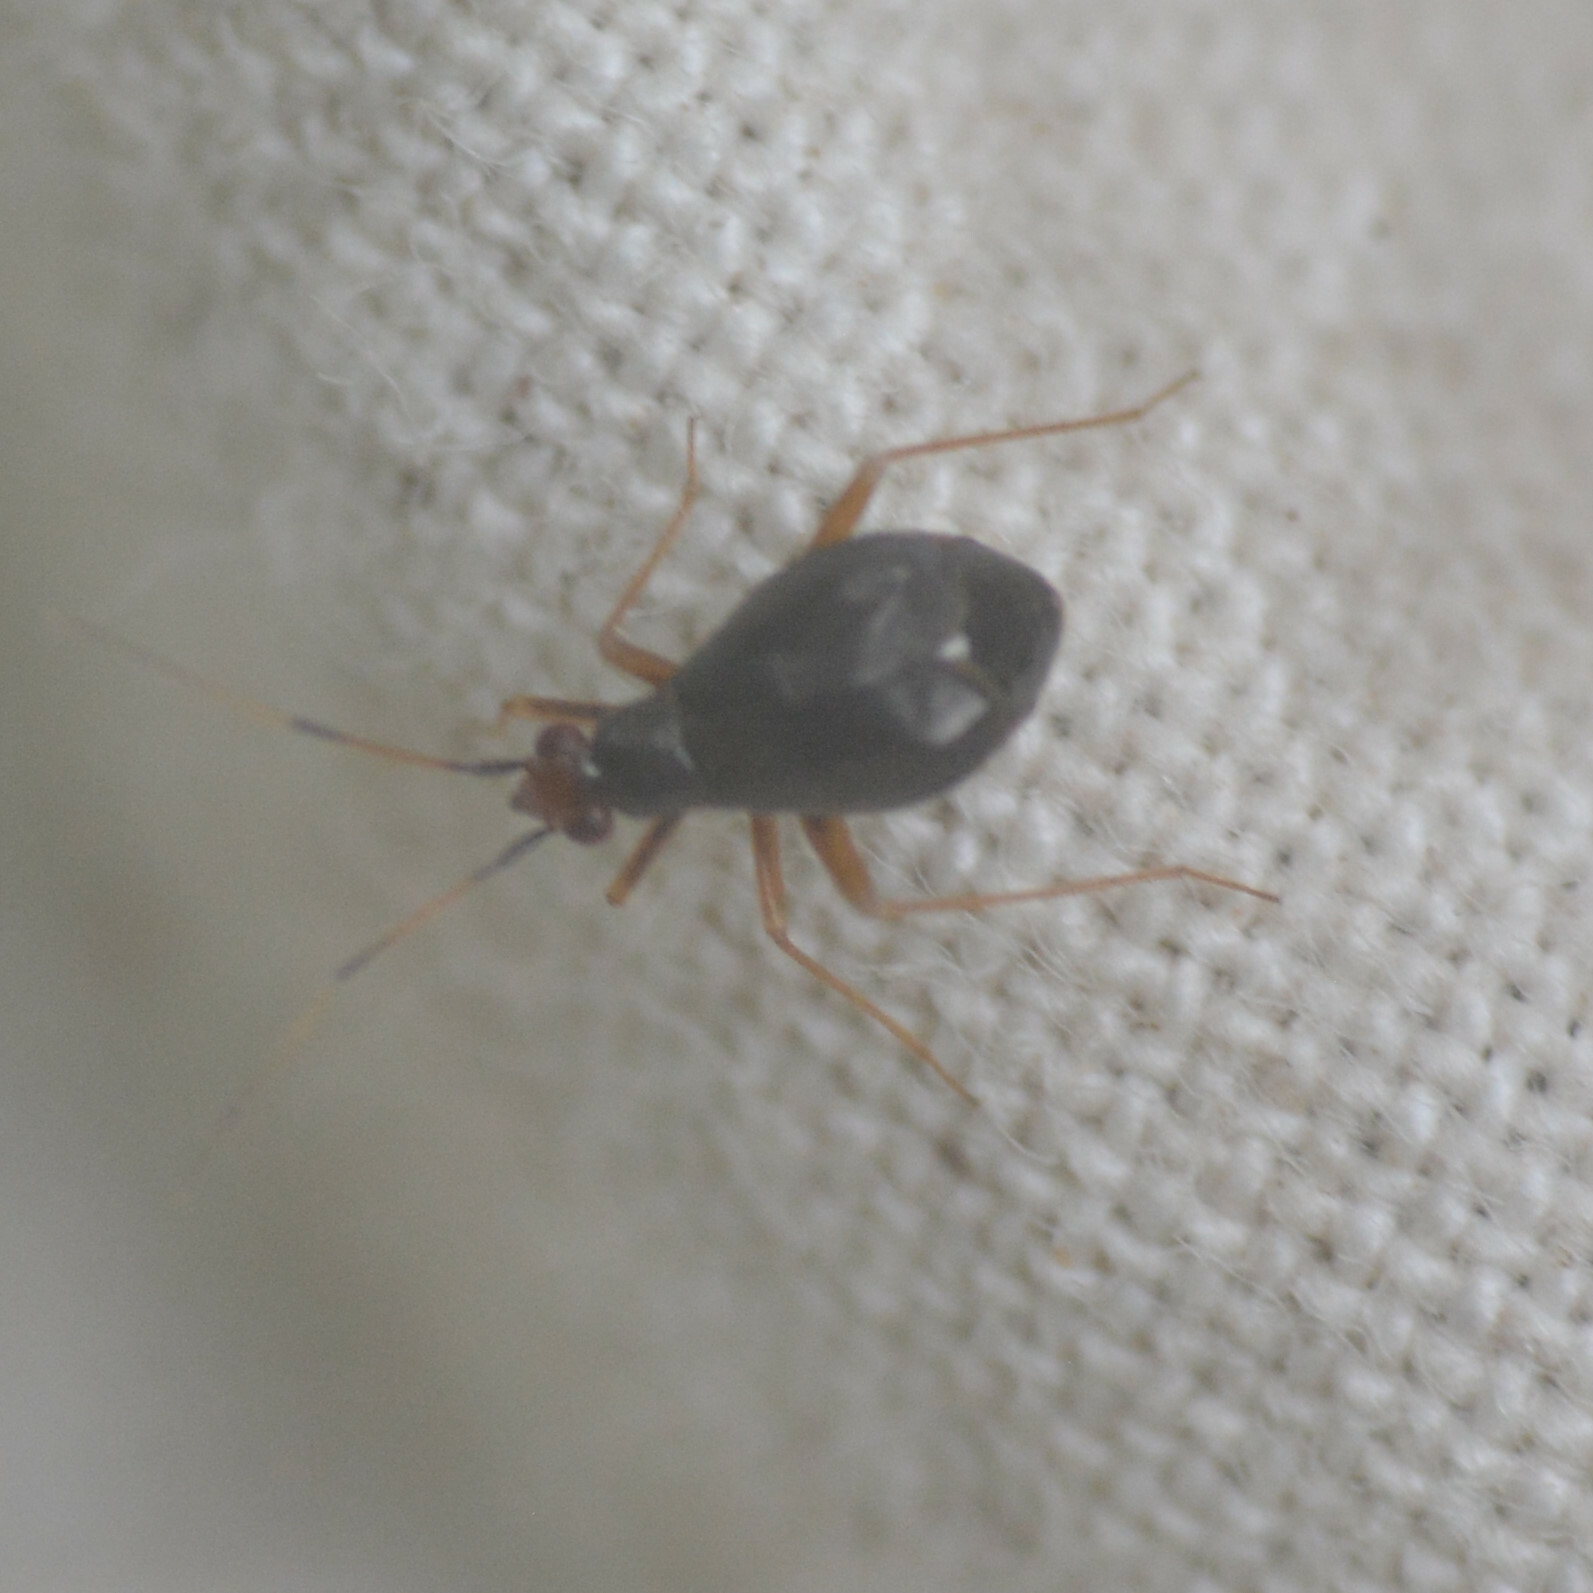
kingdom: Animalia
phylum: Arthropoda
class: Insecta
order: Hemiptera
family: Miridae
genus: Orthonotus
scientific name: Orthonotus rufifrons
